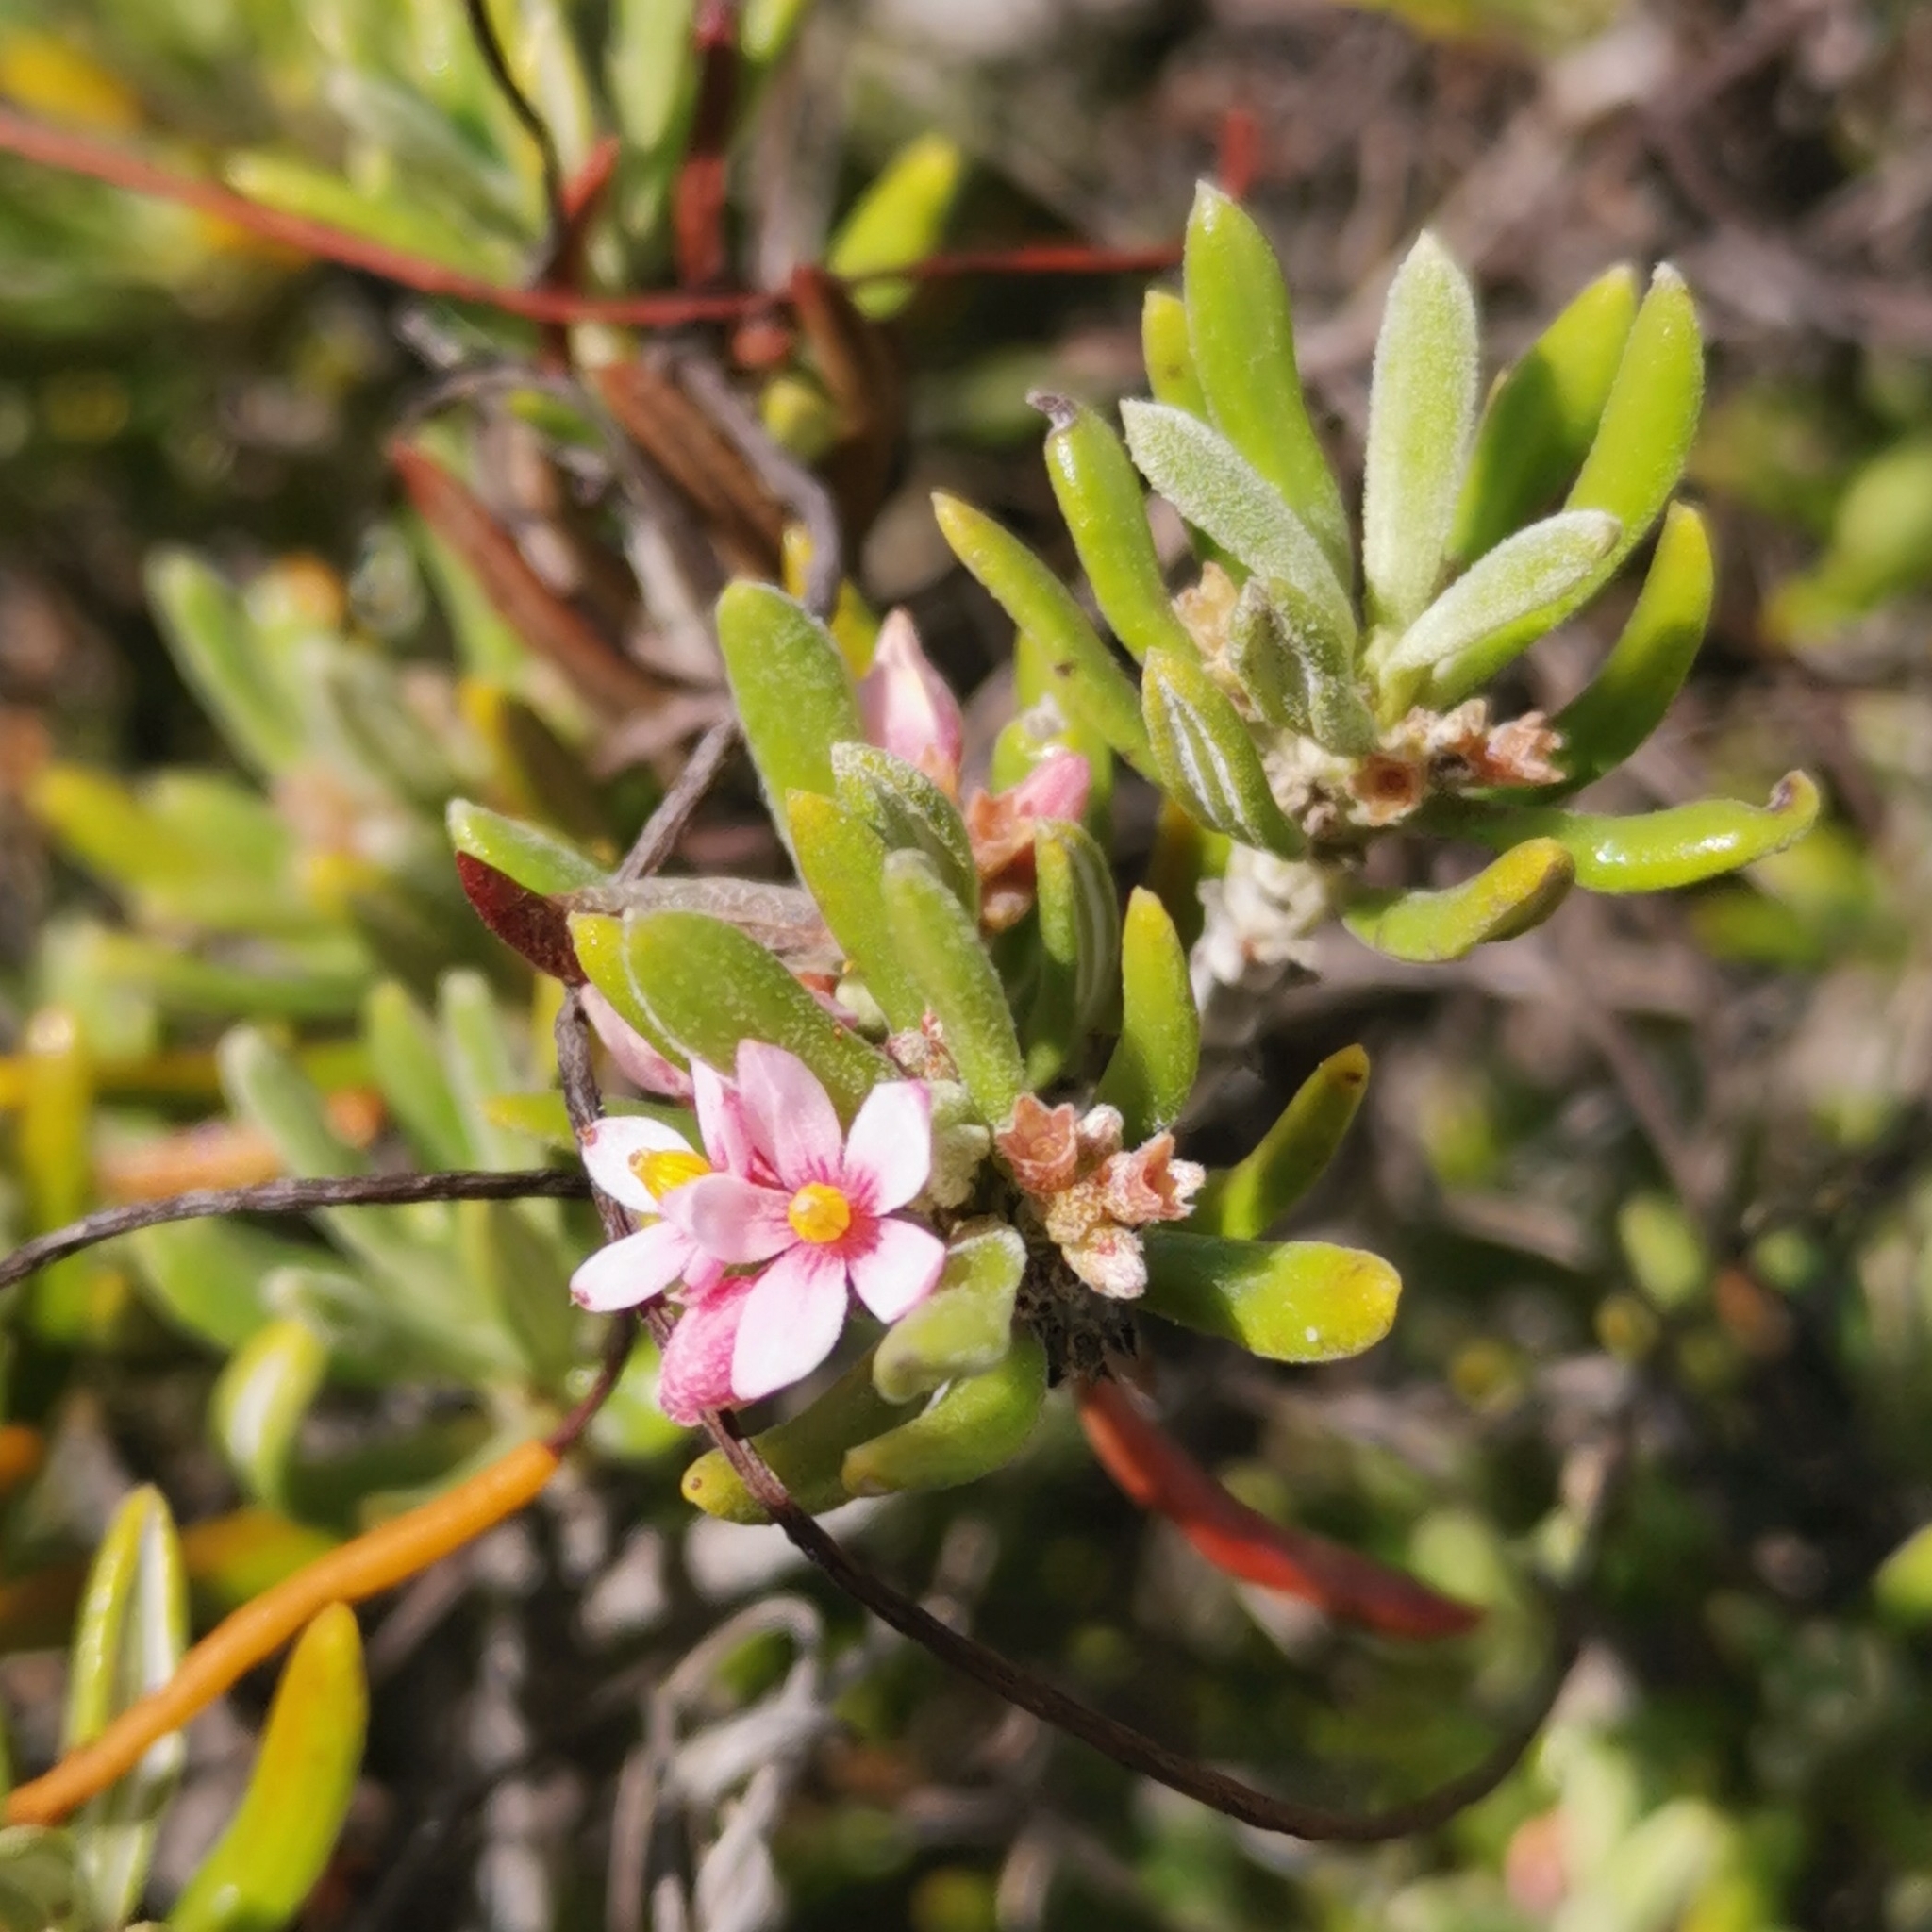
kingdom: Plantae
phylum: Tracheophyta
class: Magnoliopsida
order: Gentianales
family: Rubiaceae
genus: Strumpfia
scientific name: Strumpfia maritima
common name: Pride-of-big pine
